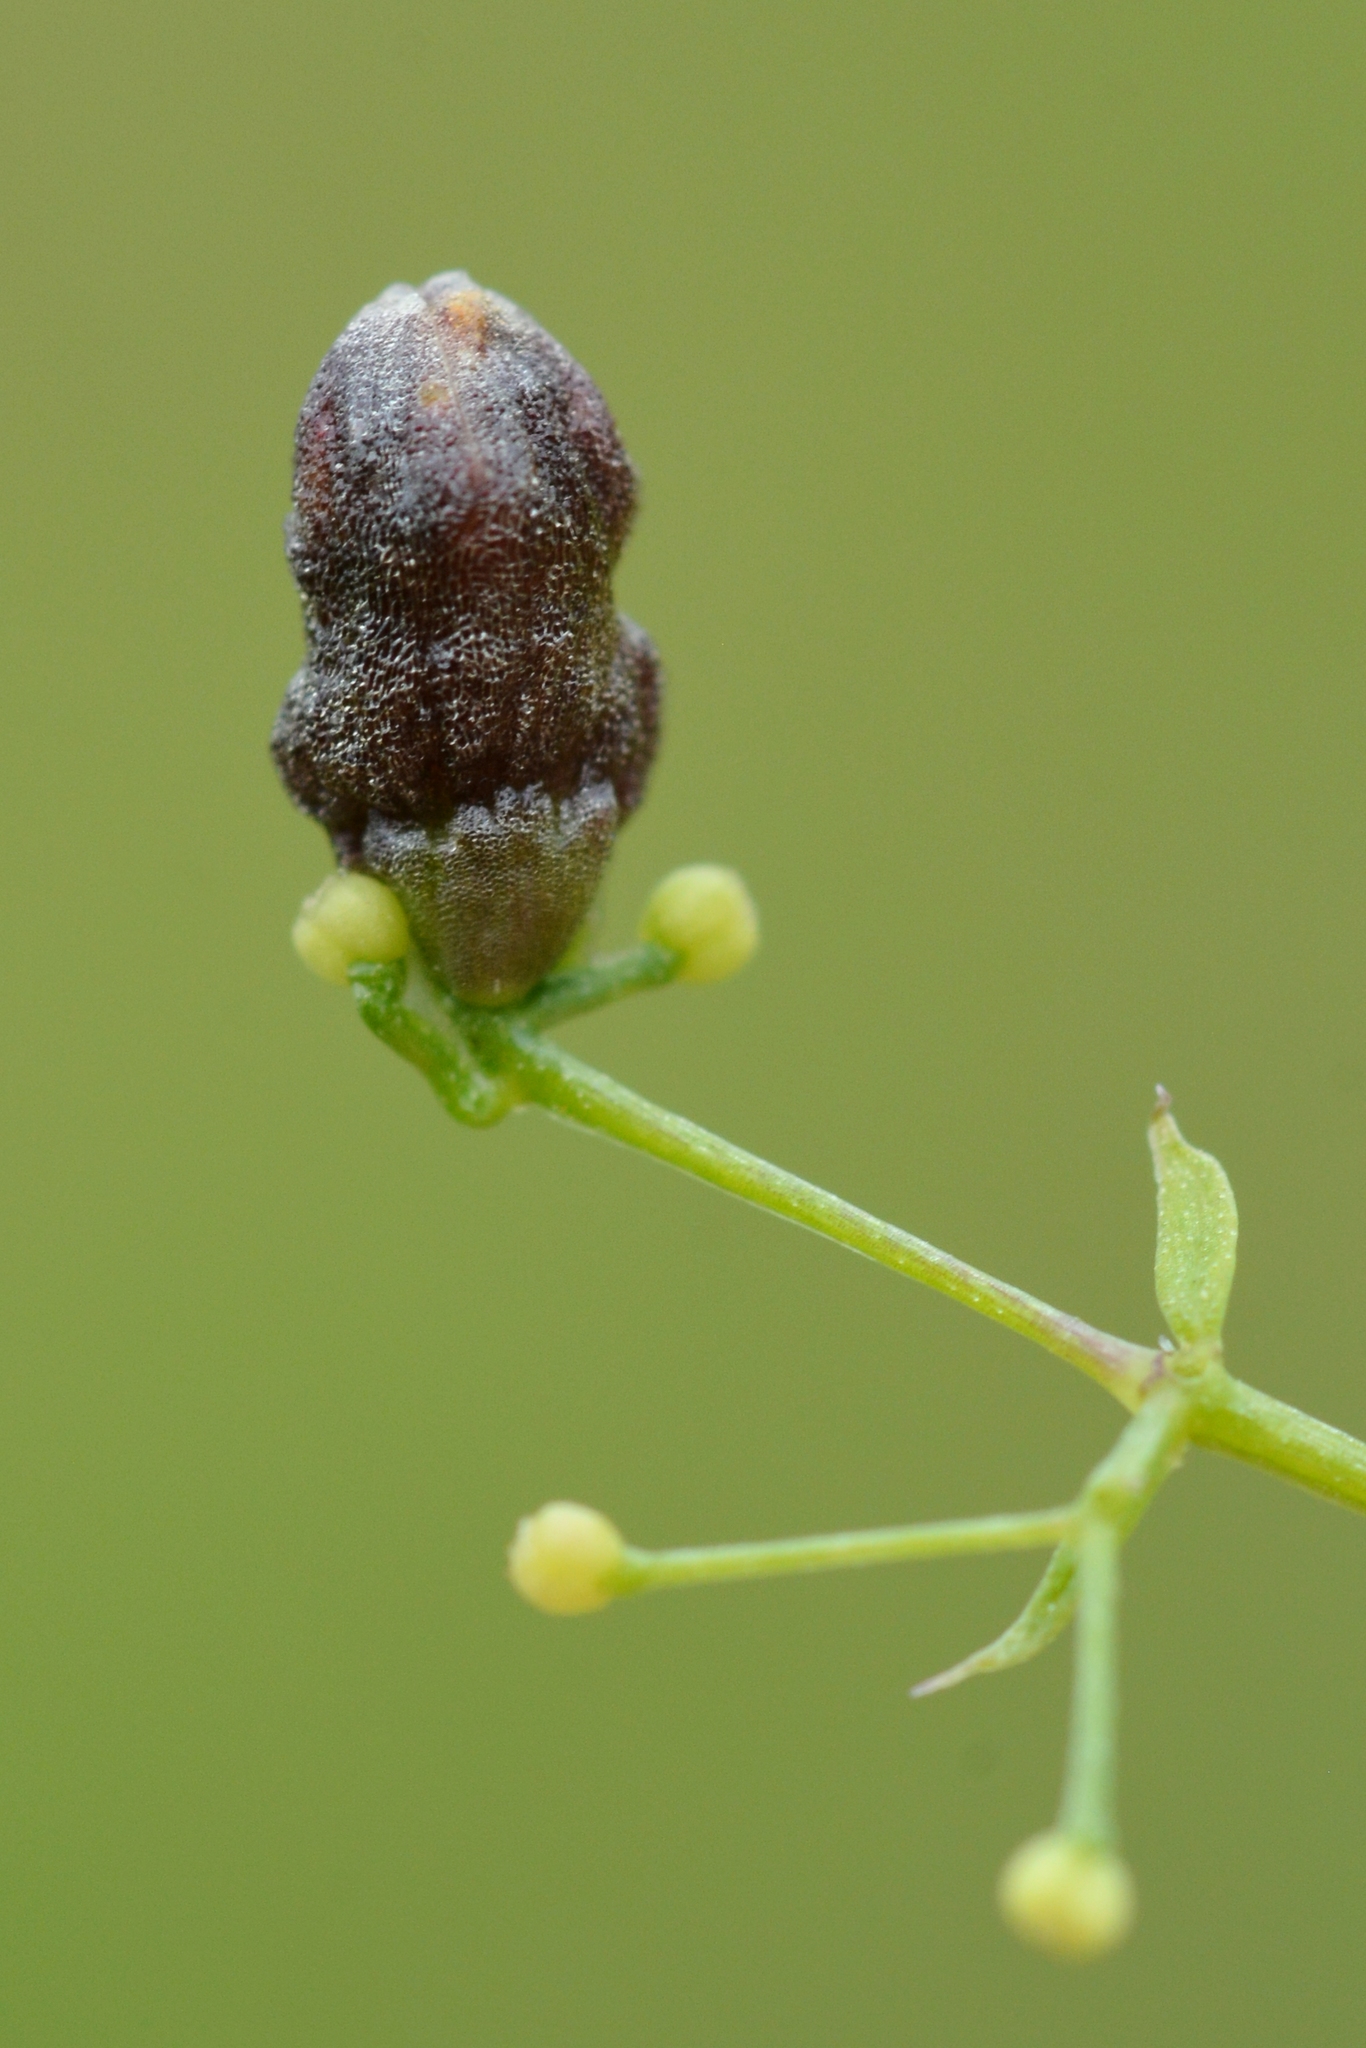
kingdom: Animalia
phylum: Arthropoda
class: Insecta
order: Diptera
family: Cecidomyiidae
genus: Schizomyia
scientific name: Schizomyia galiorum
